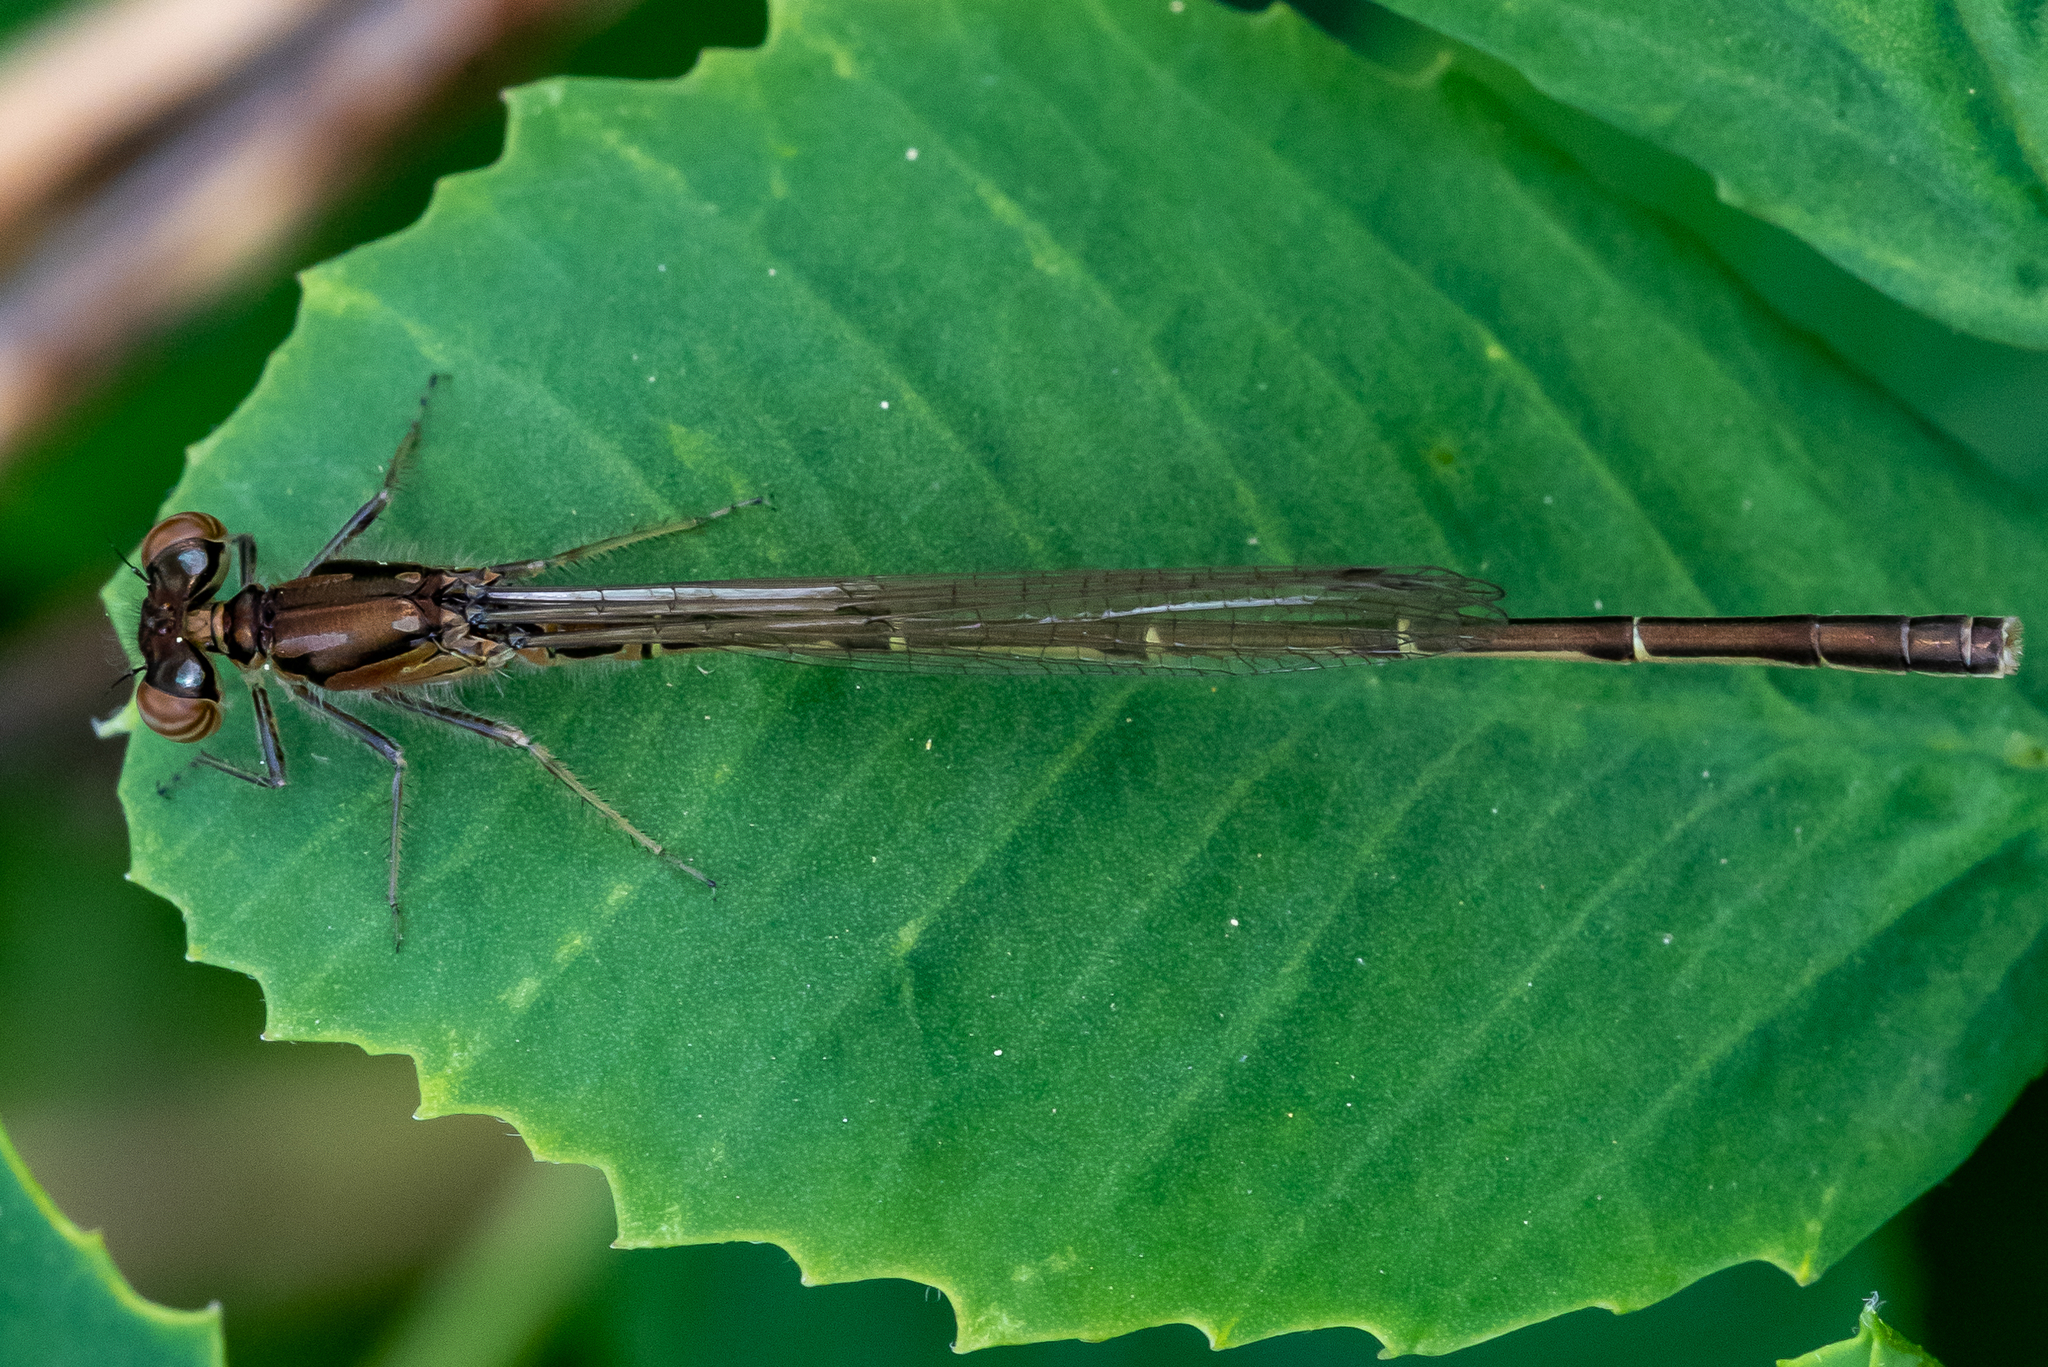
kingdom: Animalia
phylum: Arthropoda
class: Insecta
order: Odonata
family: Coenagrionidae
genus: Ischnura
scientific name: Ischnura posita
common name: Fragile forktail
